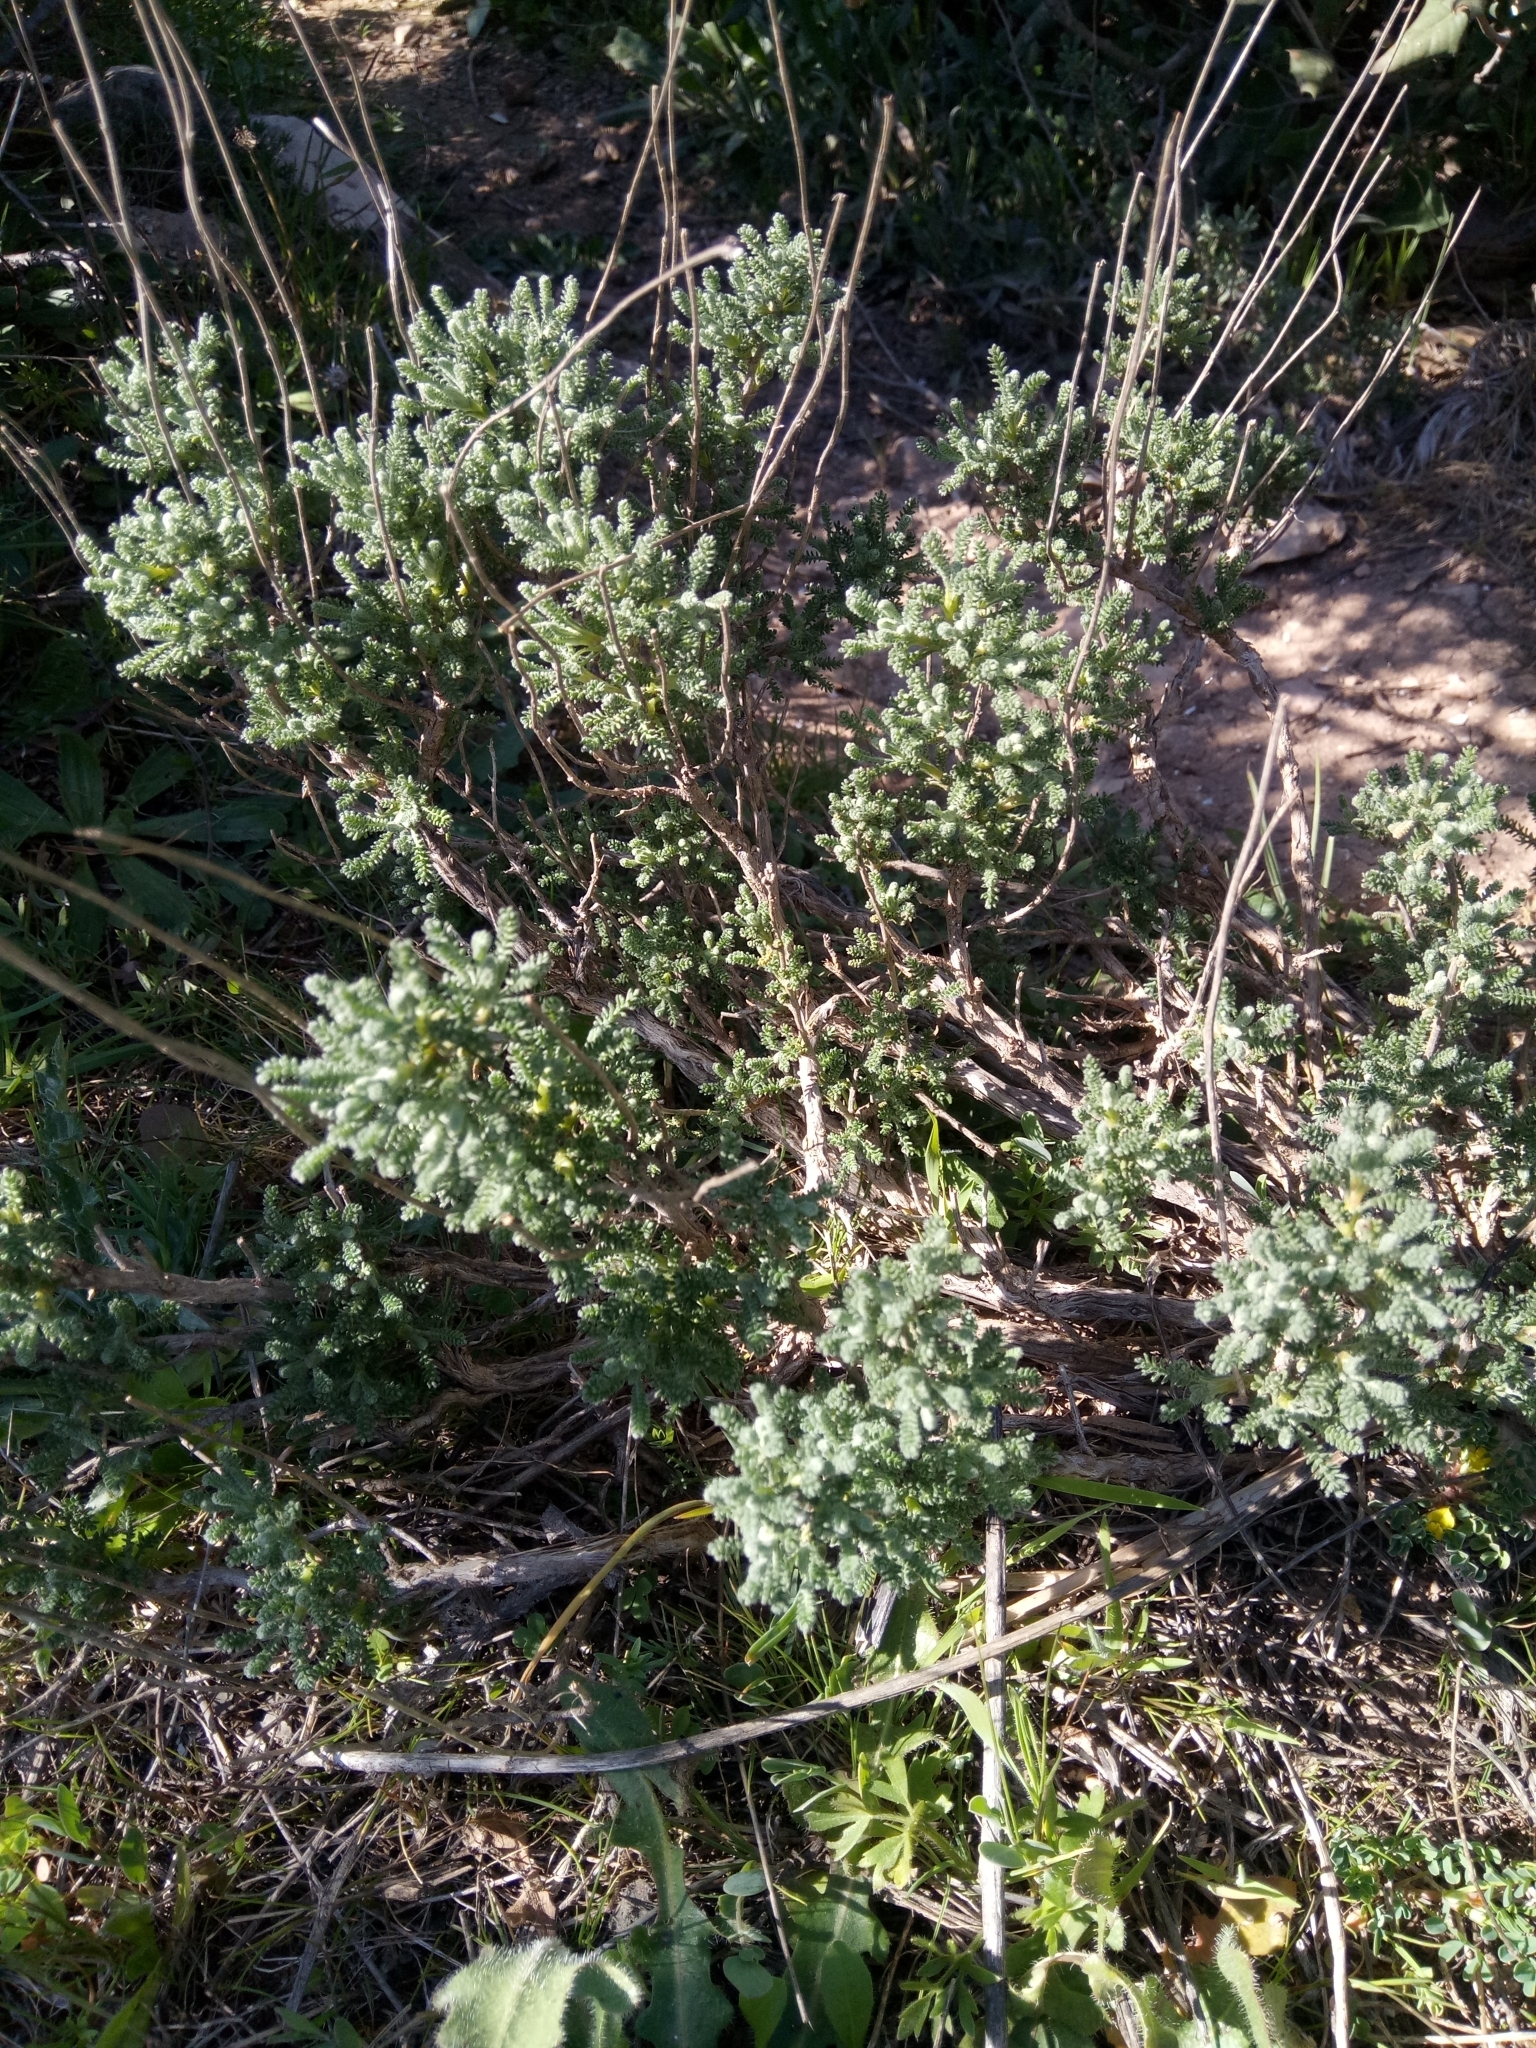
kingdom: Plantae
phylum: Tracheophyta
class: Magnoliopsida
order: Asterales
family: Asteraceae
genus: Santolina
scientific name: Santolina africana
